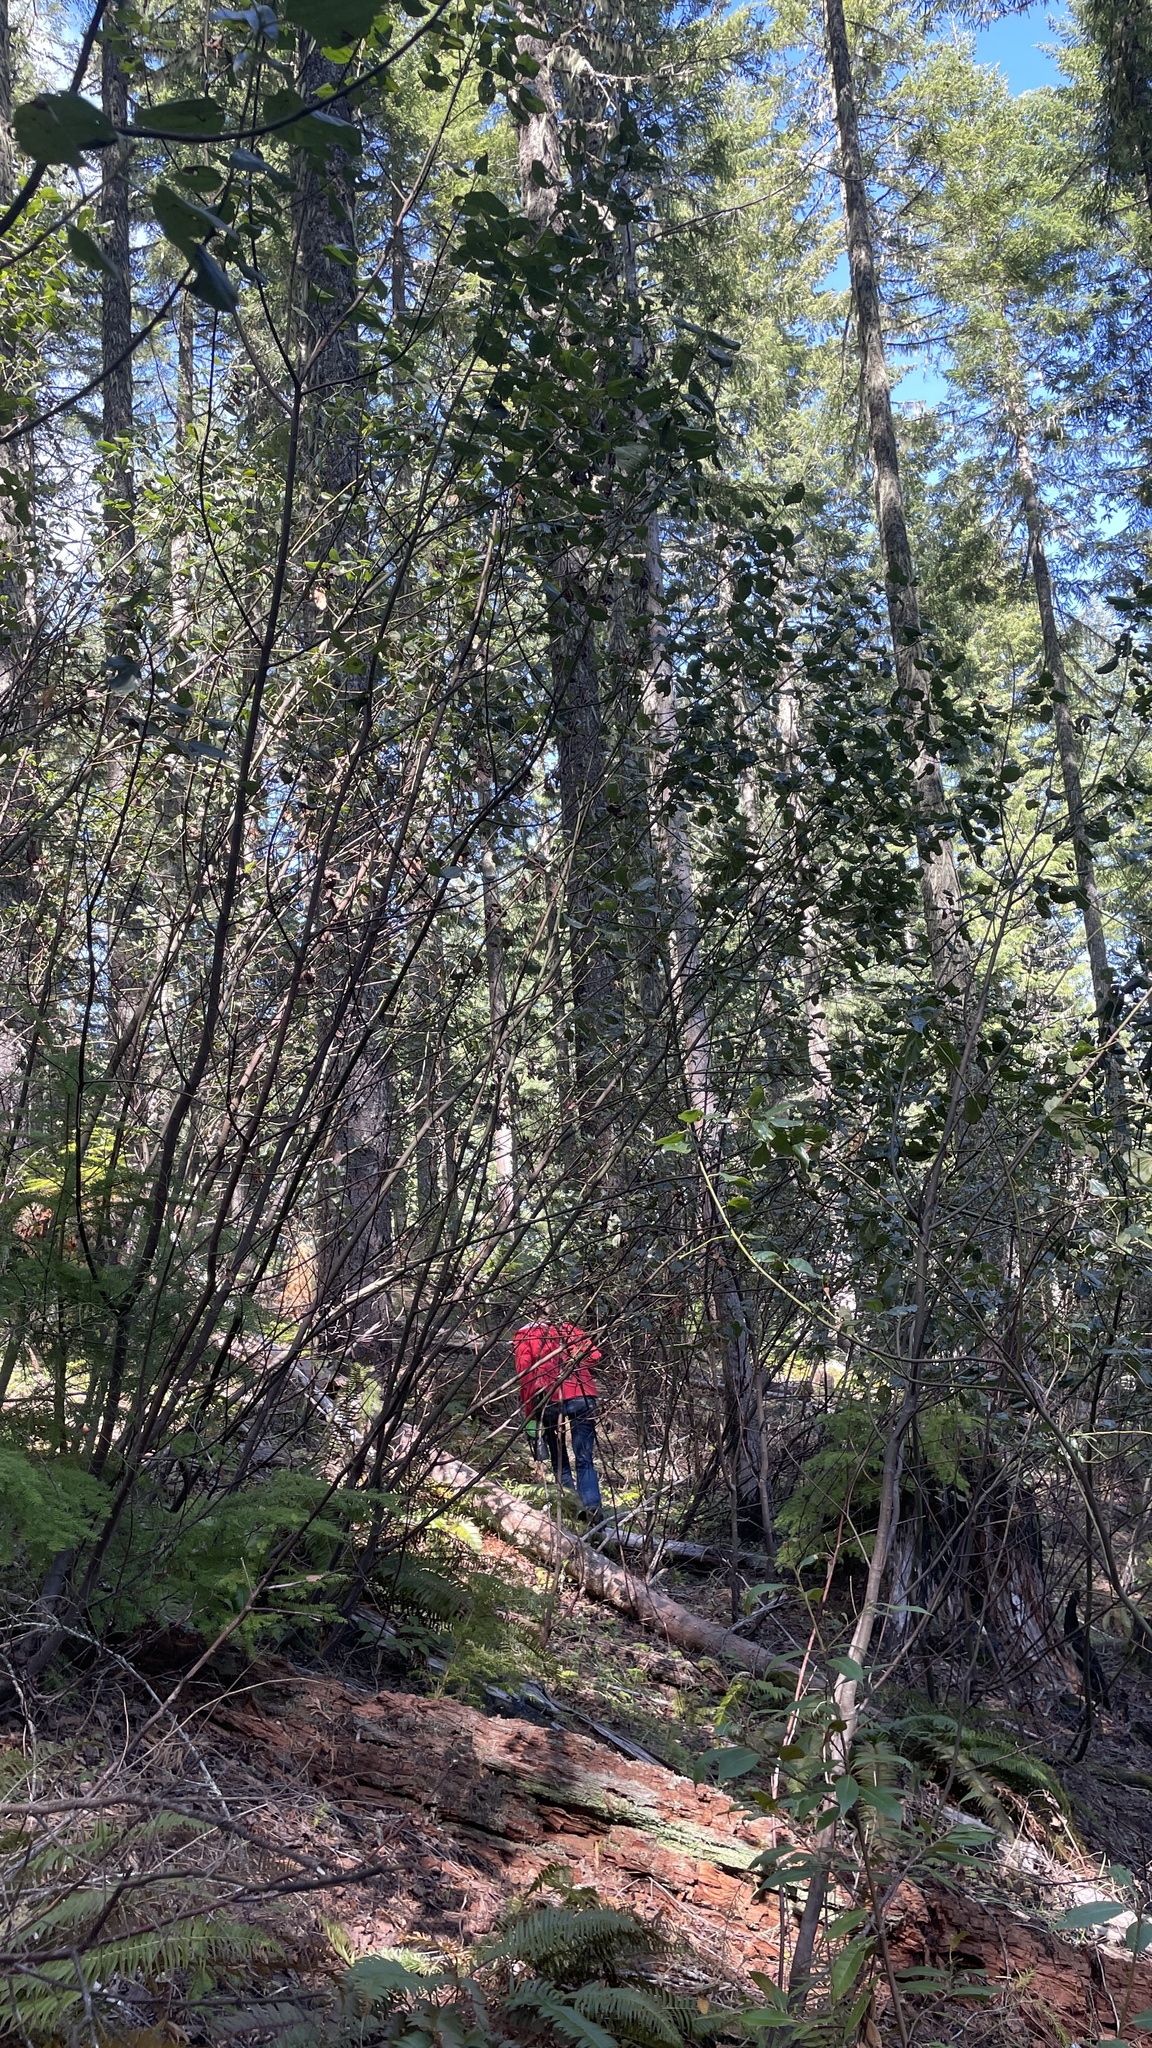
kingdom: Plantae
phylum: Tracheophyta
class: Magnoliopsida
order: Rosales
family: Rhamnaceae
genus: Ceanothus
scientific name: Ceanothus velutinus
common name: Snowbrush
